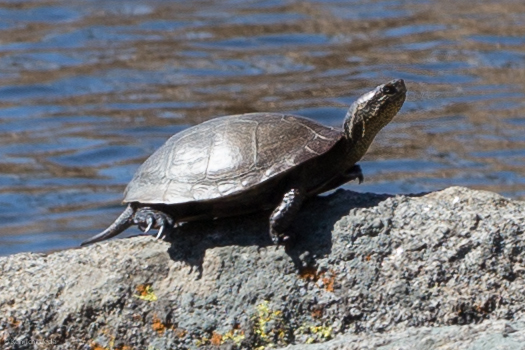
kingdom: Animalia
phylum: Chordata
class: Testudines
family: Emydidae
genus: Actinemys
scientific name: Actinemys marmorata
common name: Western pond turtle
